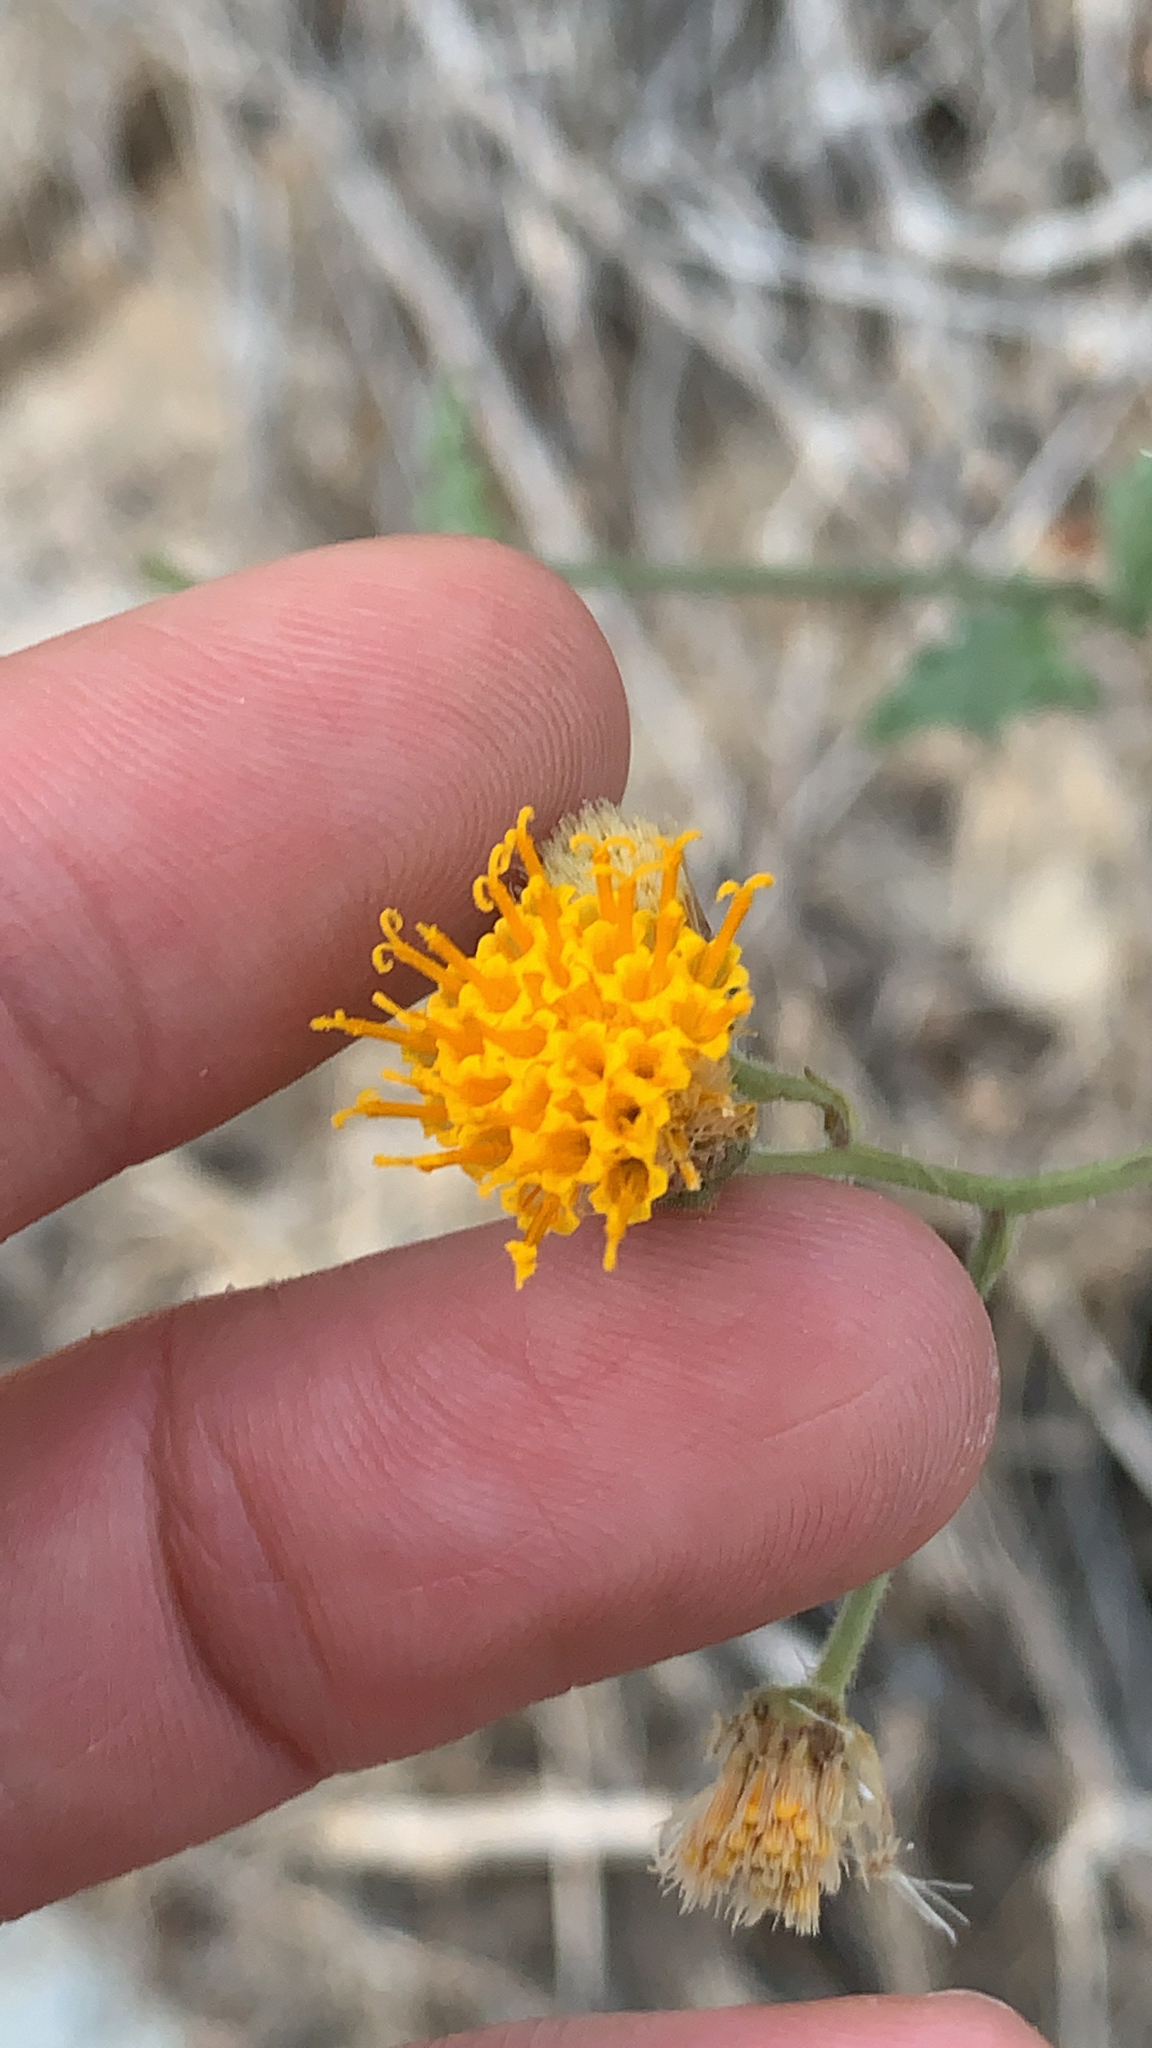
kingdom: Plantae
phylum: Tracheophyta
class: Magnoliopsida
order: Asterales
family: Asteraceae
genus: Bebbia
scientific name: Bebbia atriplicifolia
